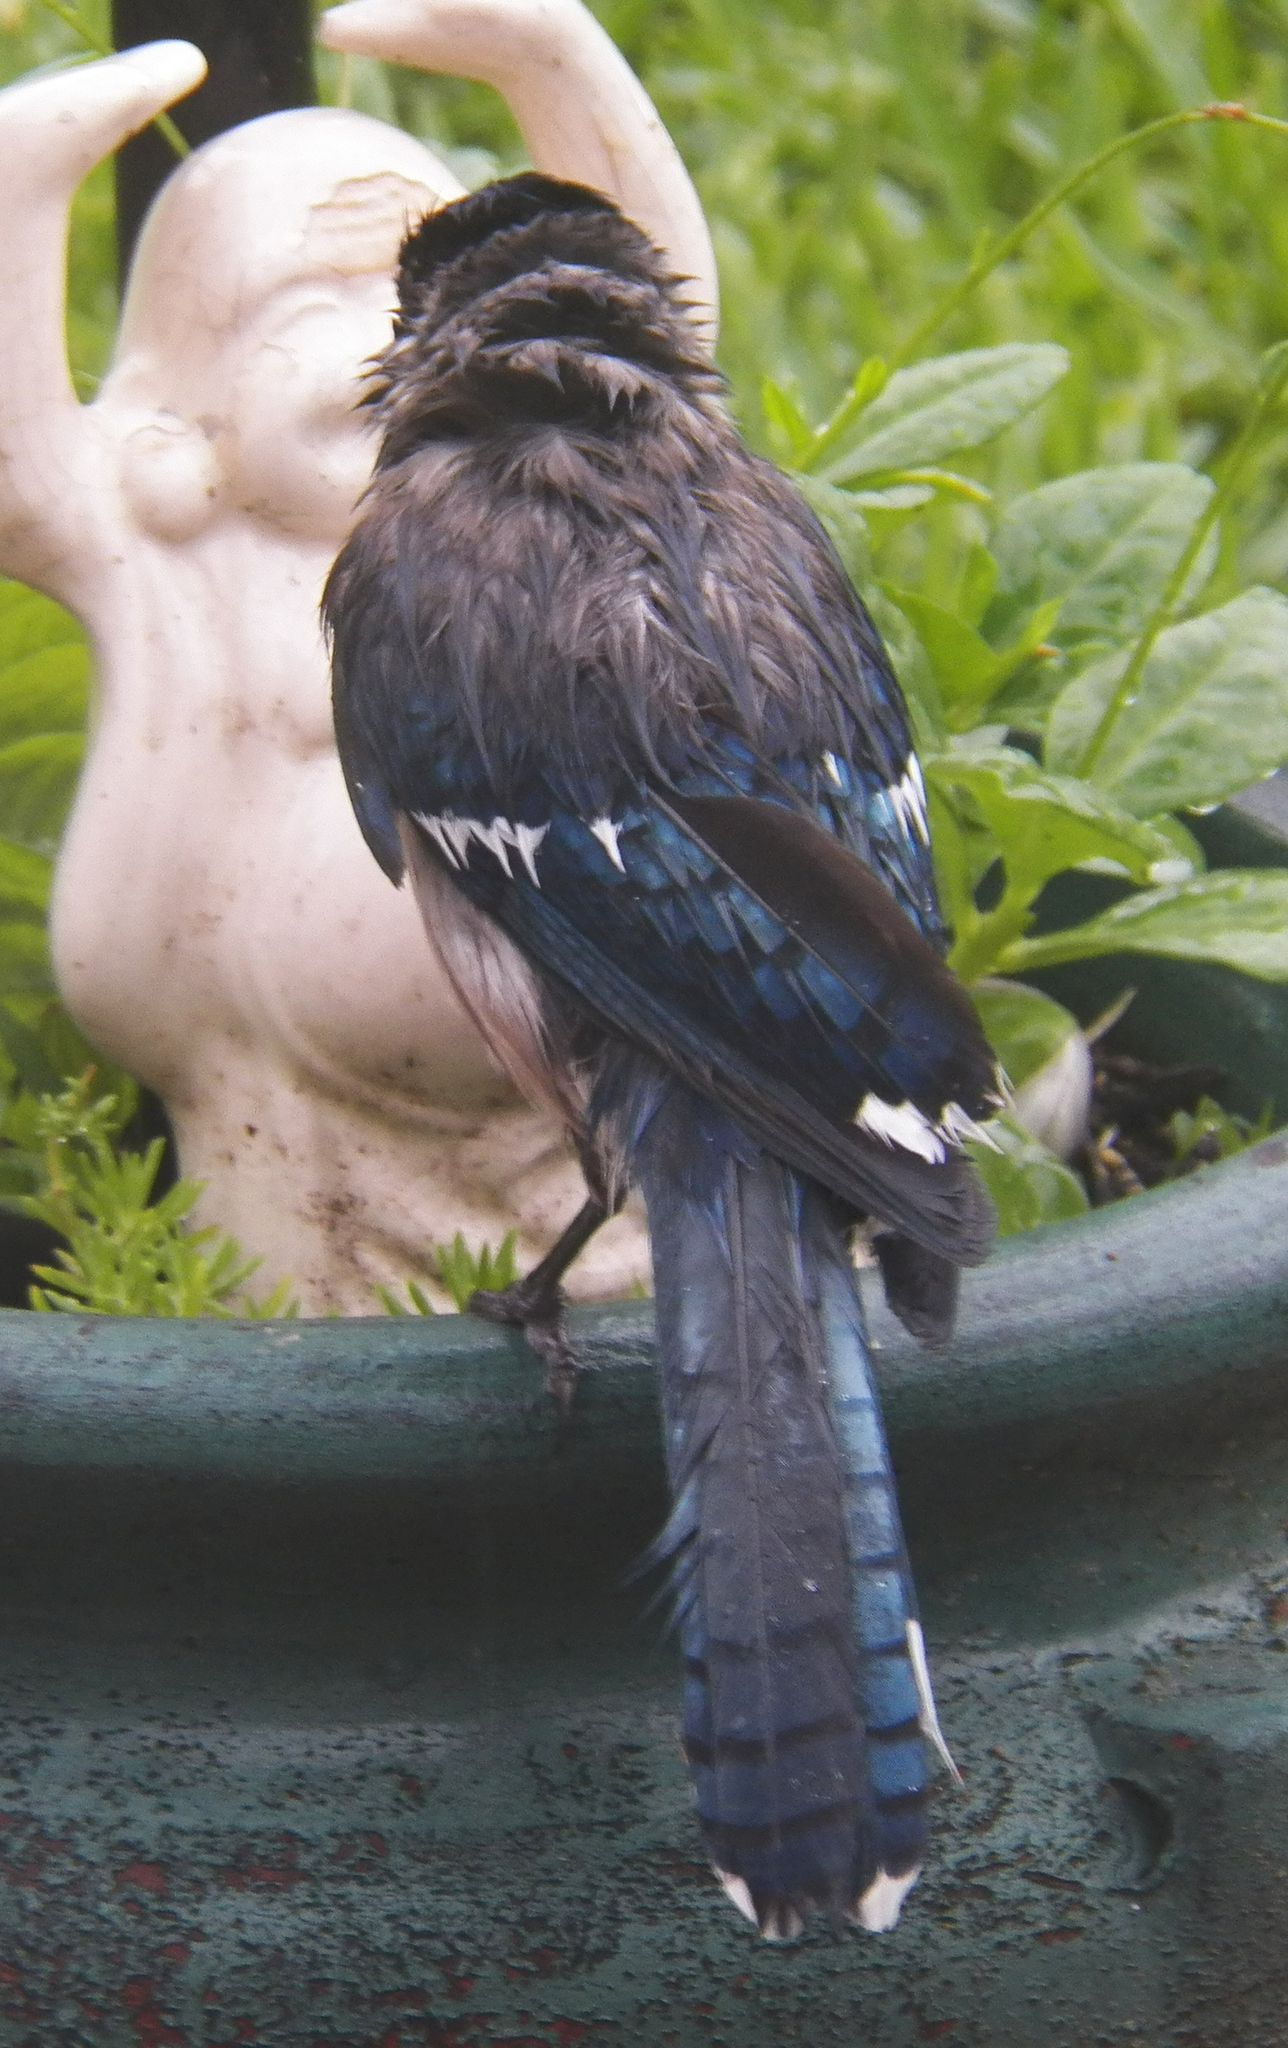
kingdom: Animalia
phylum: Chordata
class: Aves
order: Passeriformes
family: Corvidae
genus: Cyanocitta
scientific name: Cyanocitta cristata
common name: Blue jay
